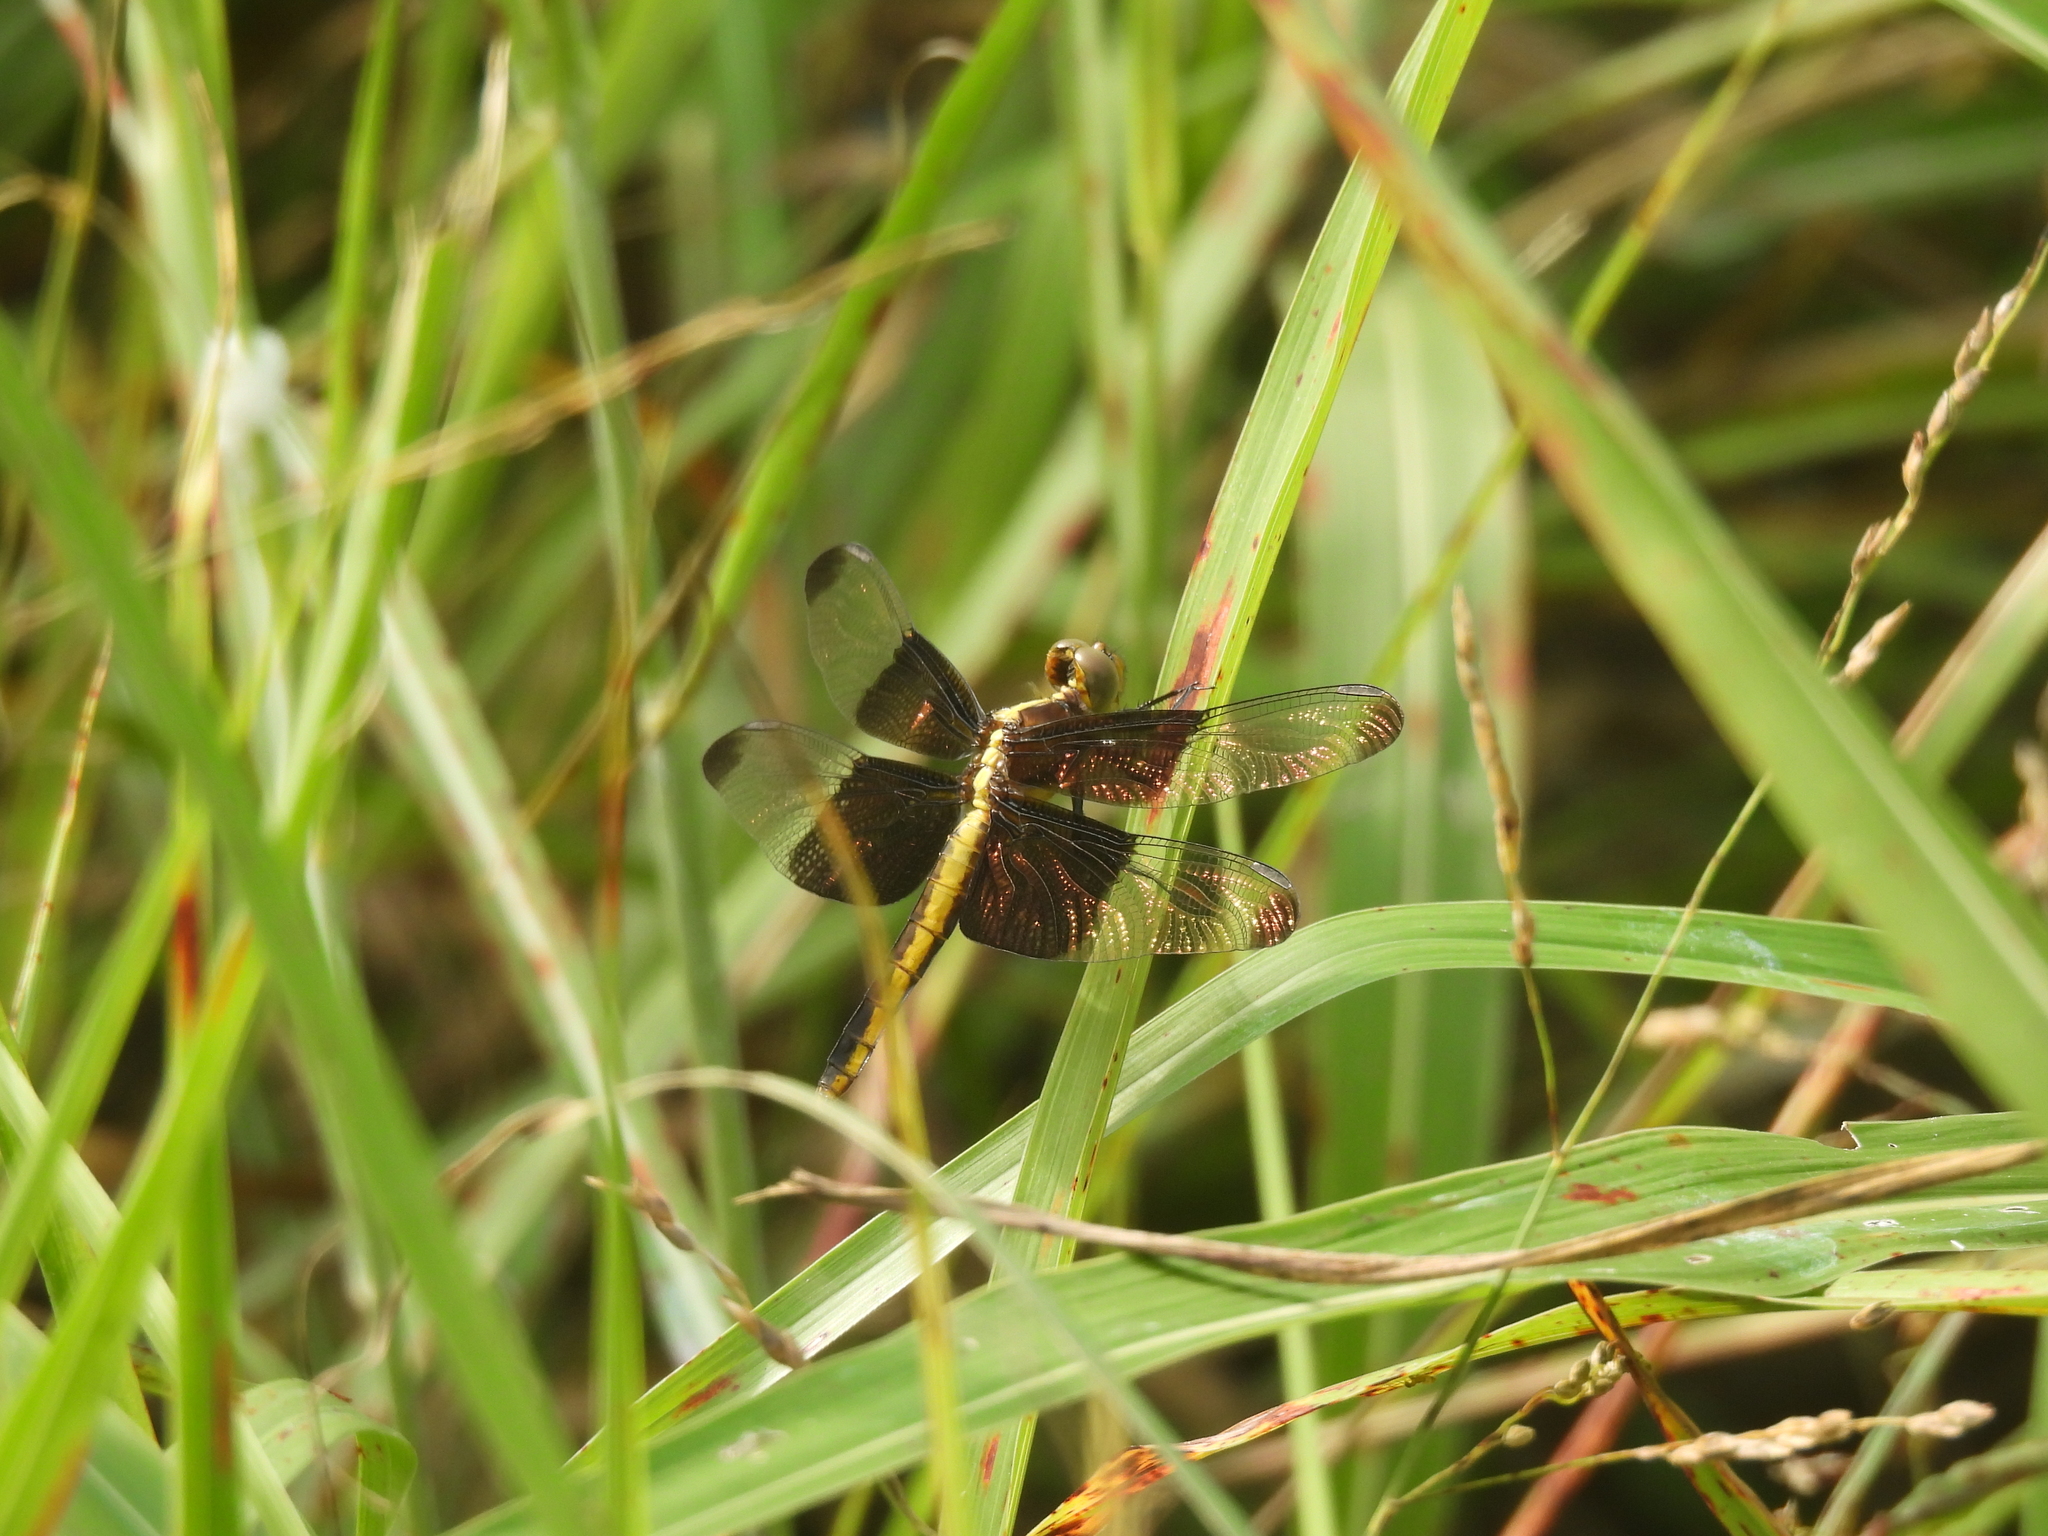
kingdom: Animalia
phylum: Arthropoda
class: Insecta
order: Odonata
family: Libellulidae
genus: Libellula
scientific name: Libellula luctuosa
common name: Widow skimmer
